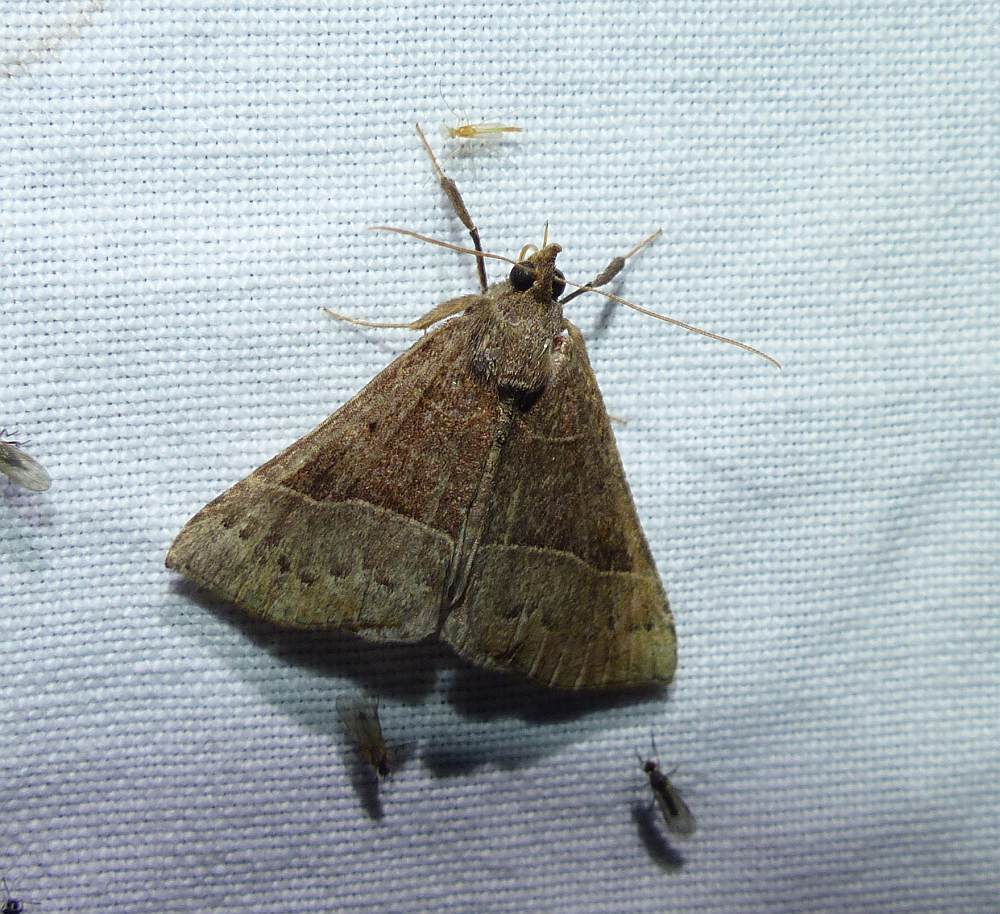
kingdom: Animalia
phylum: Arthropoda
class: Insecta
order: Lepidoptera
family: Erebidae
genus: Hypena
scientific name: Hypena deceptalis
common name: Deceptive snout
